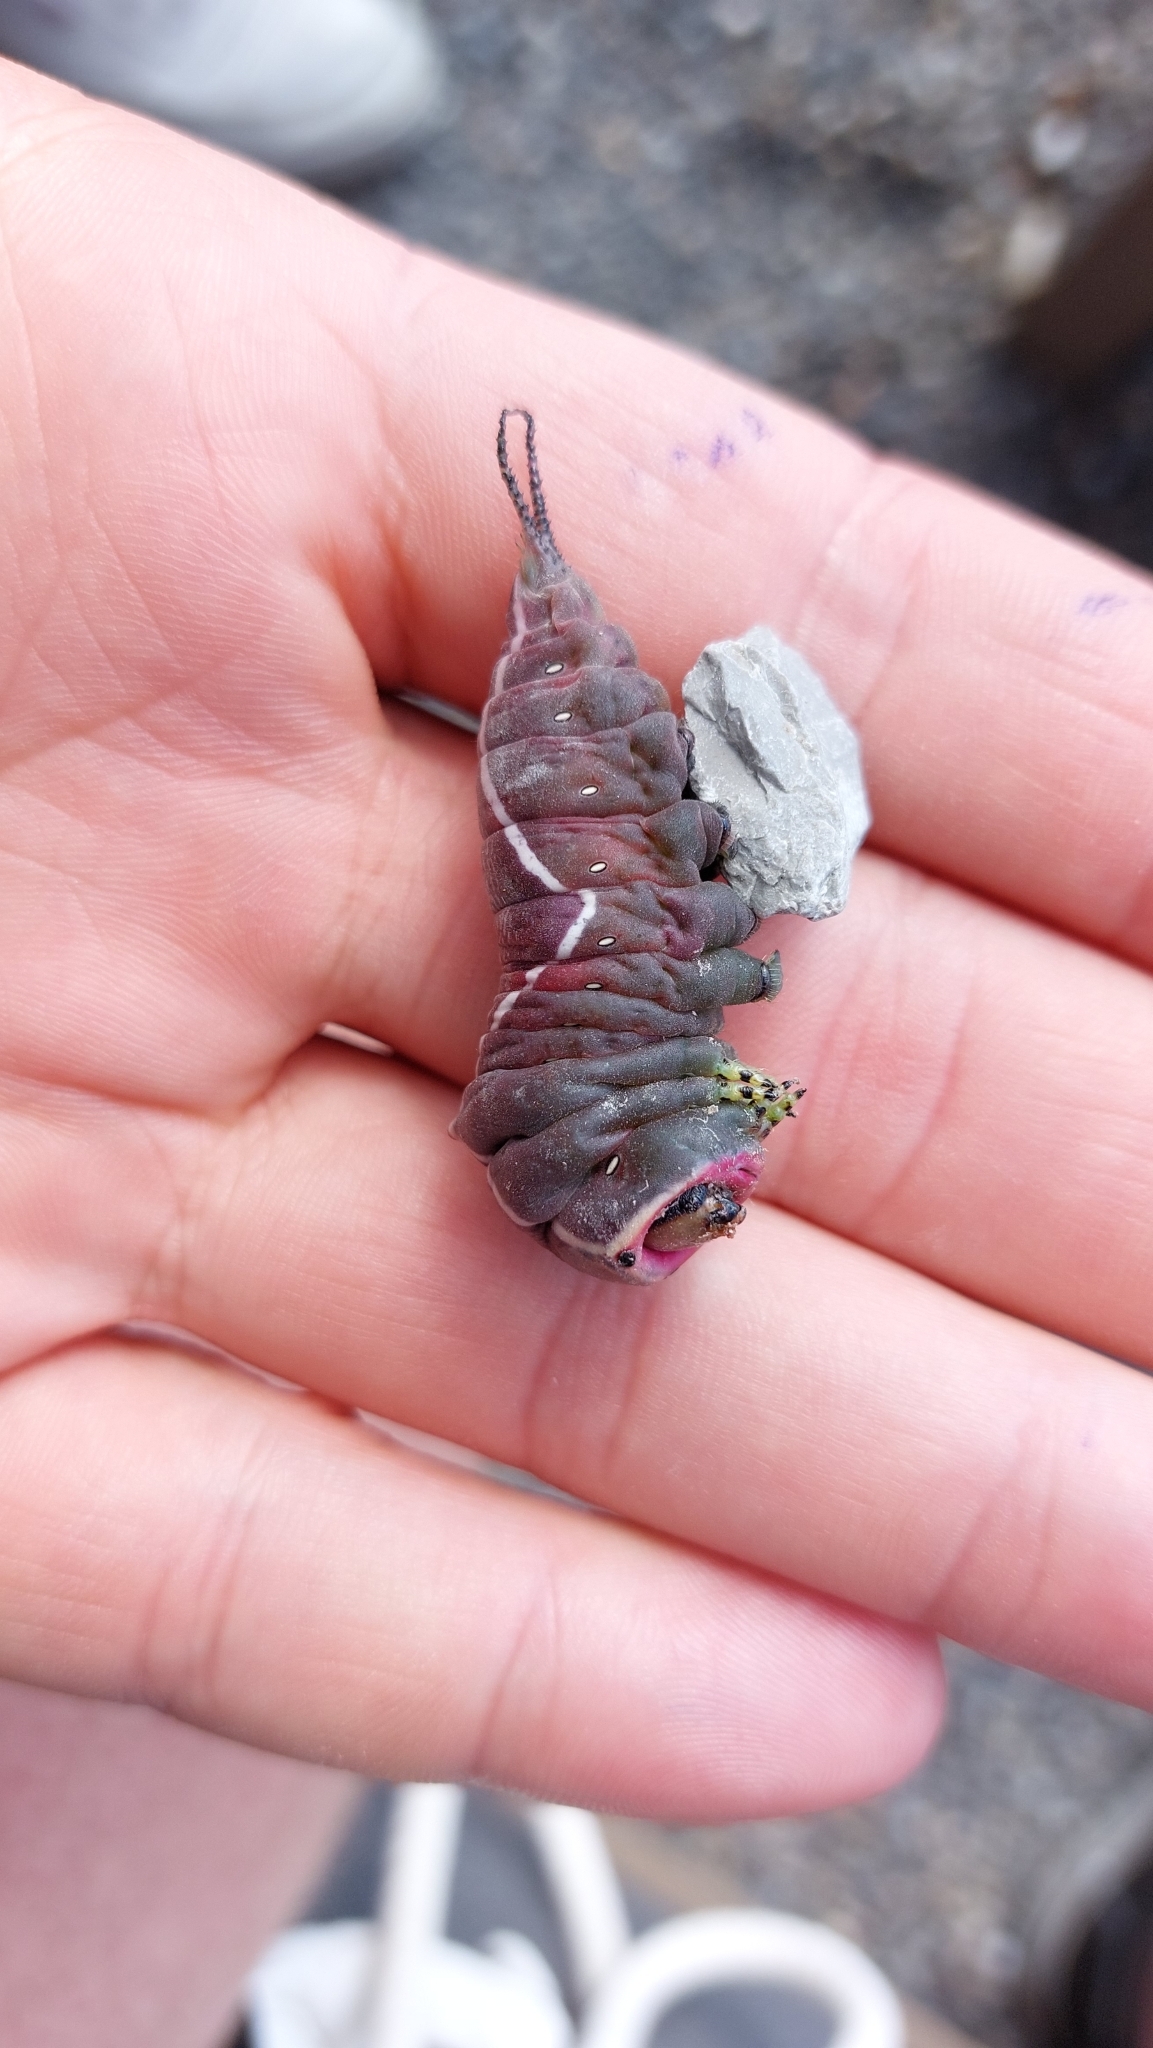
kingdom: Animalia
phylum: Arthropoda
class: Insecta
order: Lepidoptera
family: Notodontidae
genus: Cerura
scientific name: Cerura vinula
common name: Puss moth
